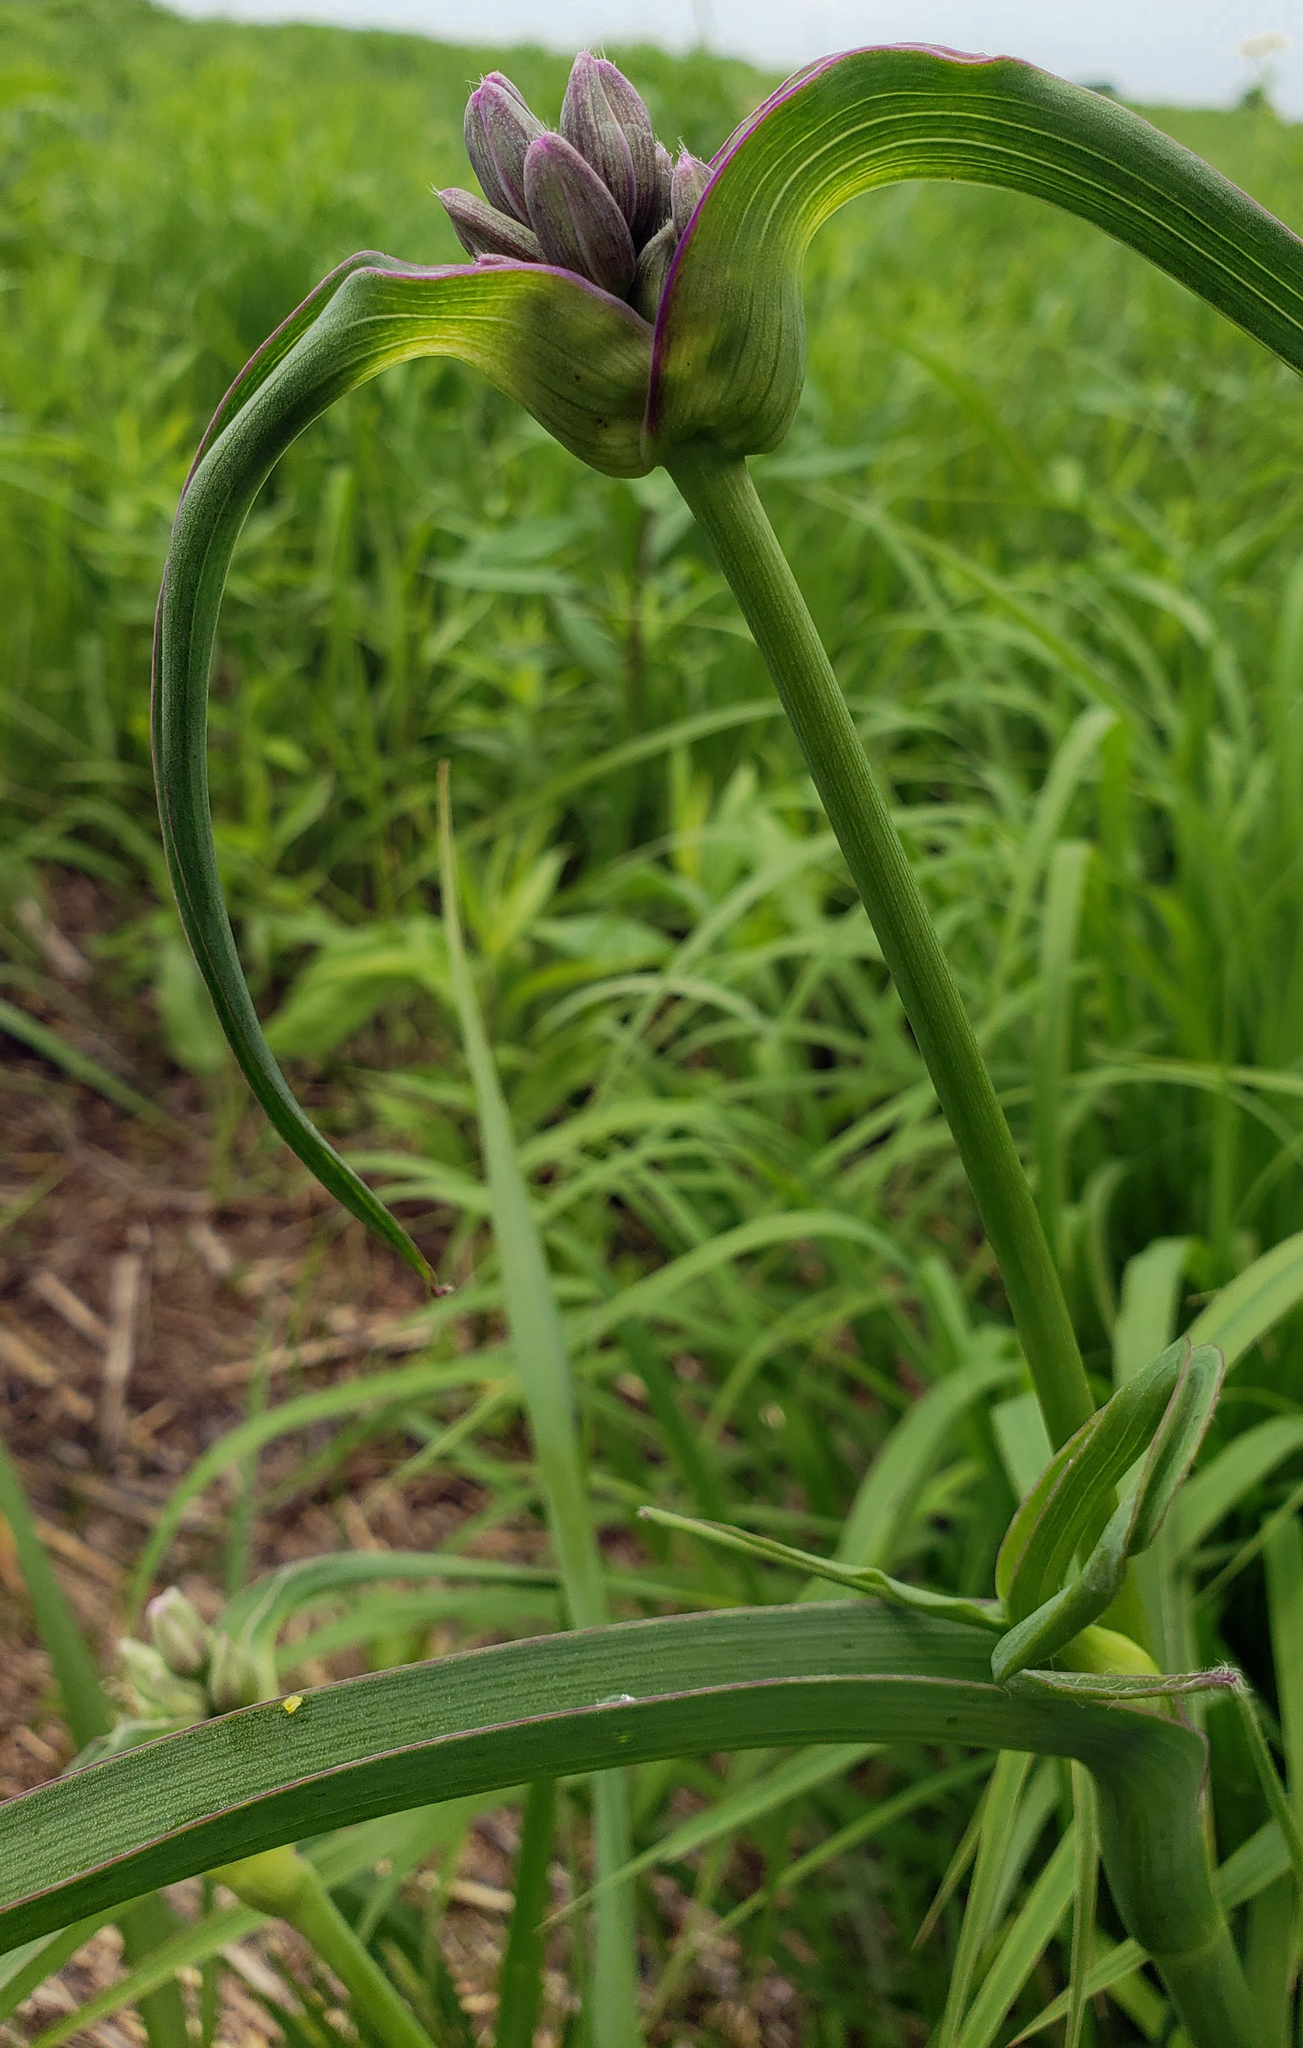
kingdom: Plantae
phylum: Tracheophyta
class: Liliopsida
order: Commelinales
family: Commelinaceae
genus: Tradescantia
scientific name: Tradescantia ohiensis
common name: Ohio spiderwort
